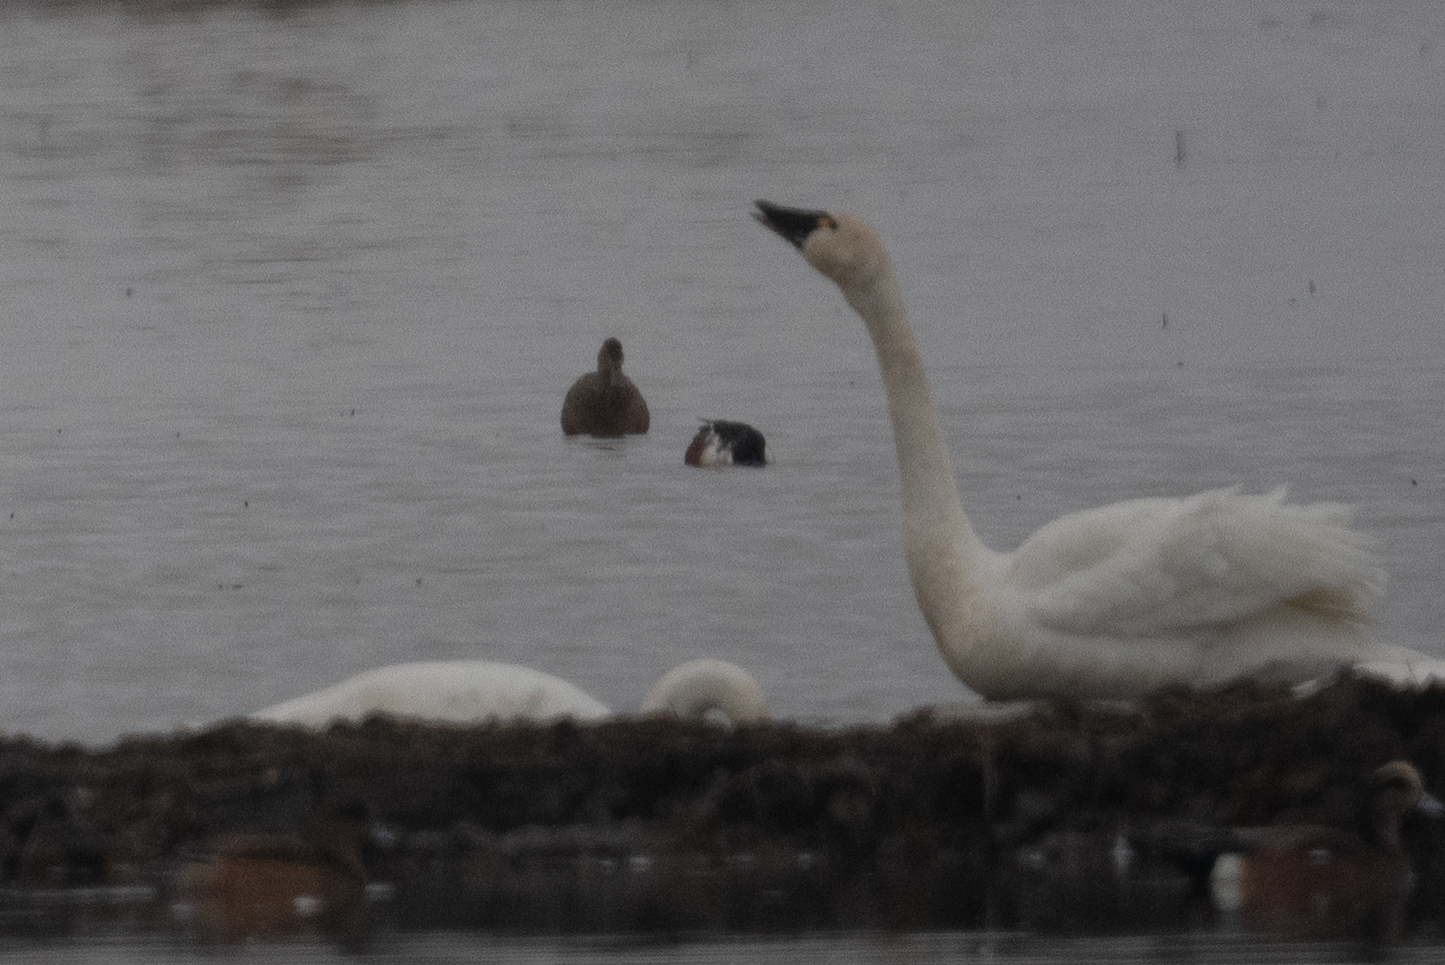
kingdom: Animalia
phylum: Chordata
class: Aves
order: Anseriformes
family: Anatidae
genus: Cygnus
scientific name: Cygnus columbianus
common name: Tundra swan
